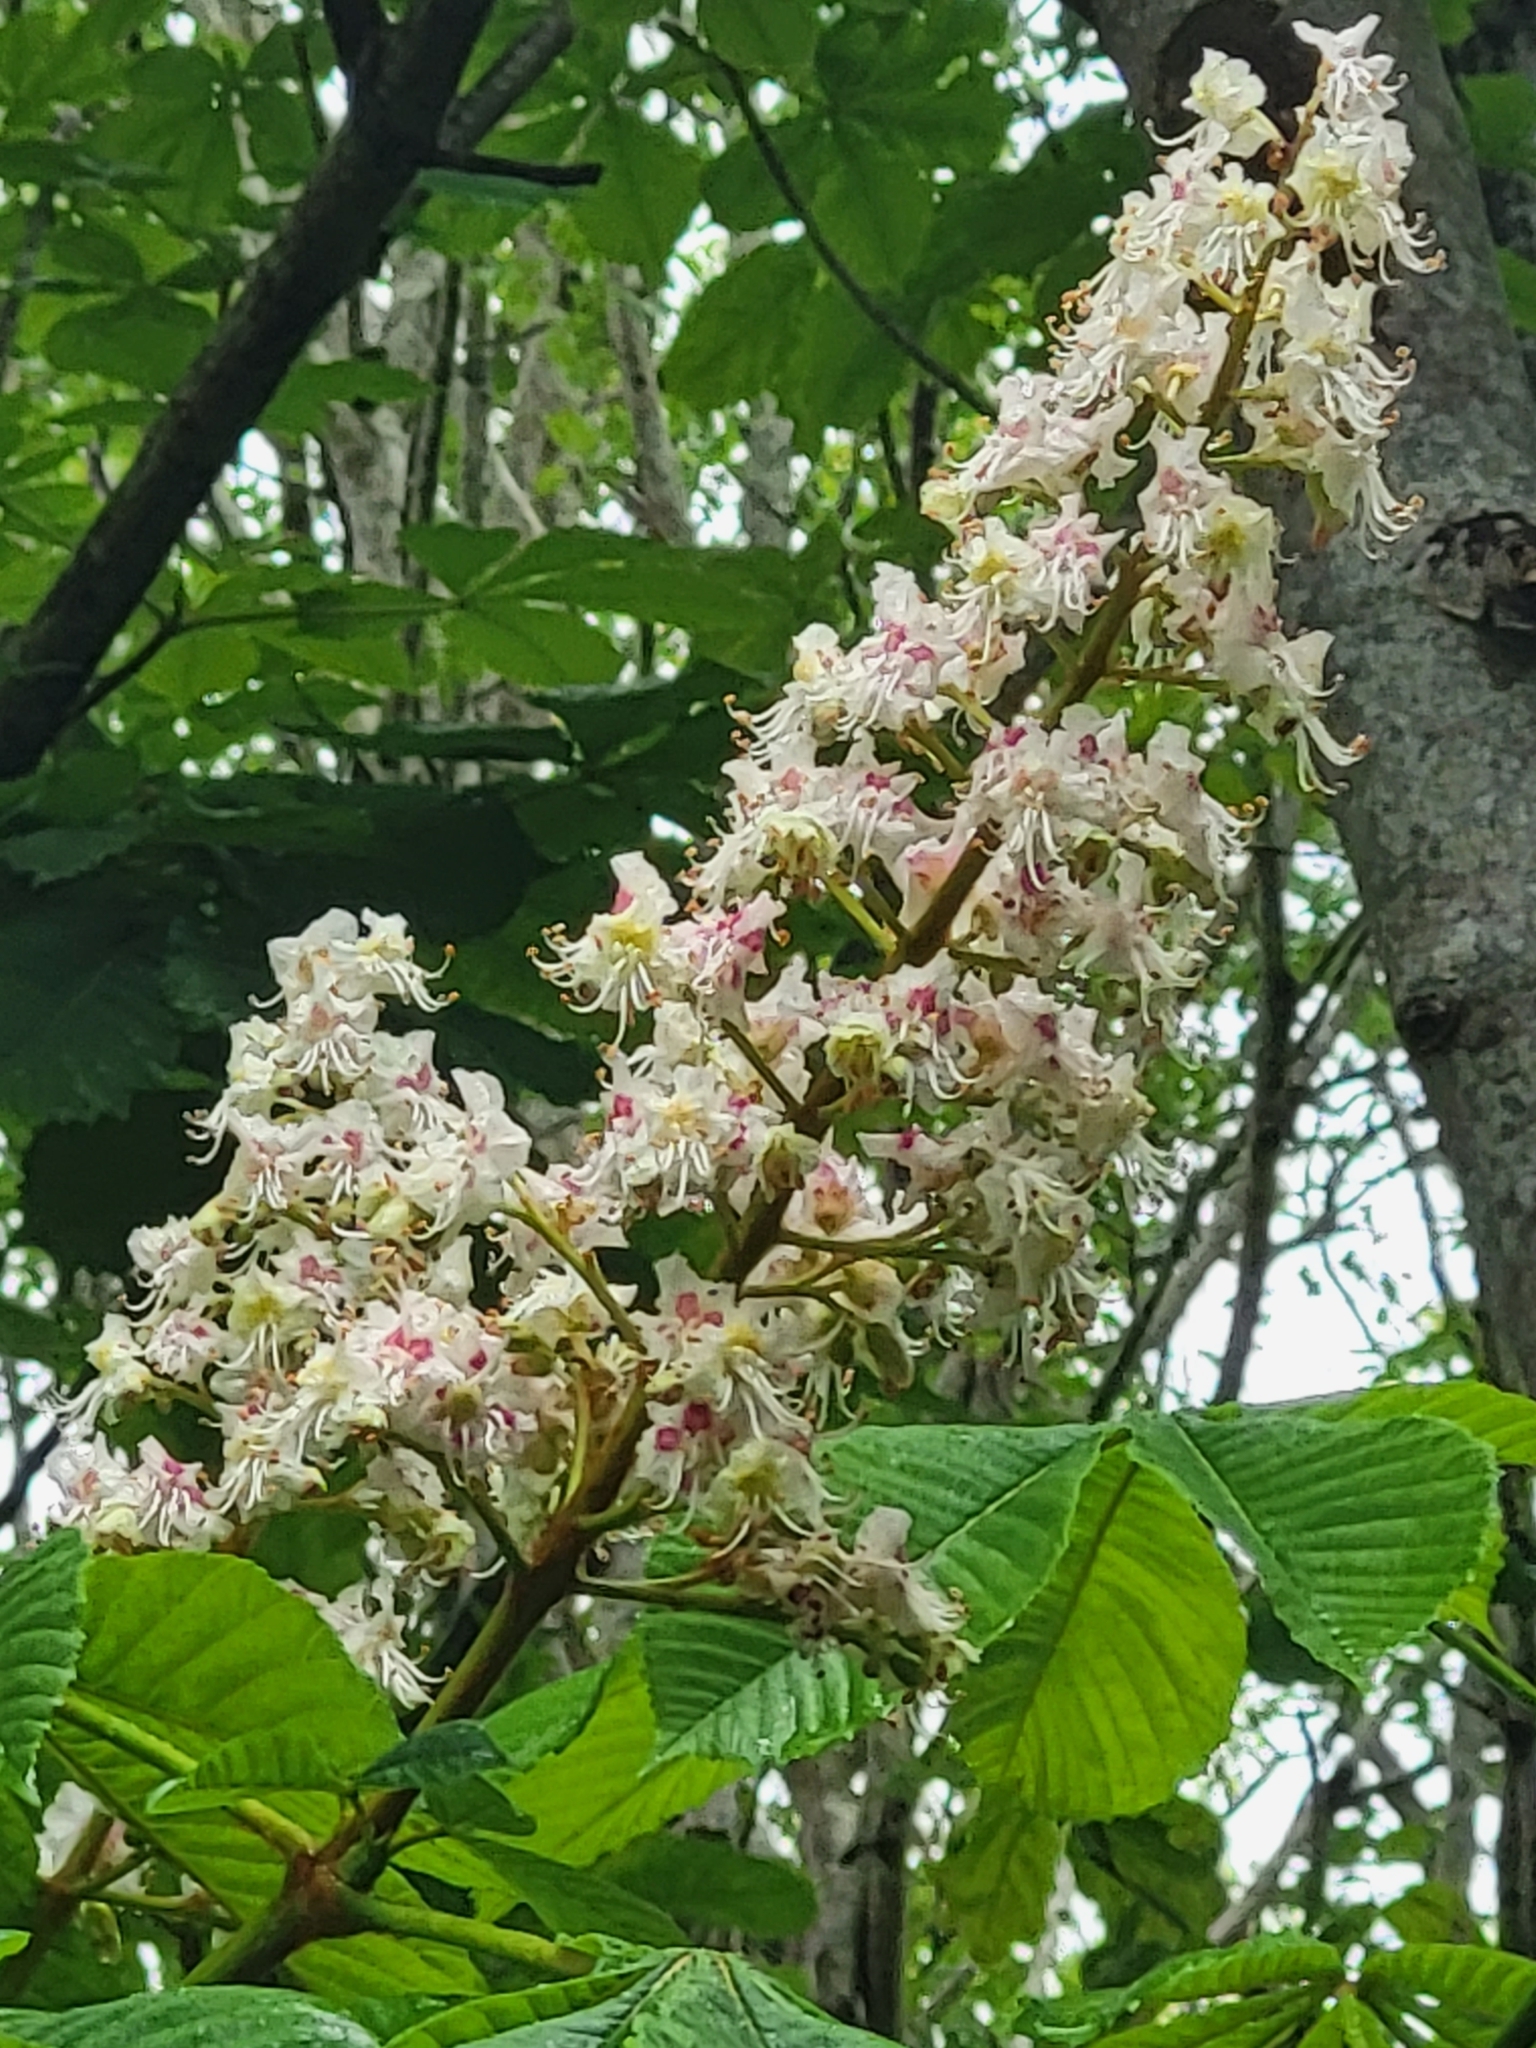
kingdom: Plantae
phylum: Tracheophyta
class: Magnoliopsida
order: Sapindales
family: Sapindaceae
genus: Aesculus
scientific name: Aesculus hippocastanum
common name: Horse-chestnut
